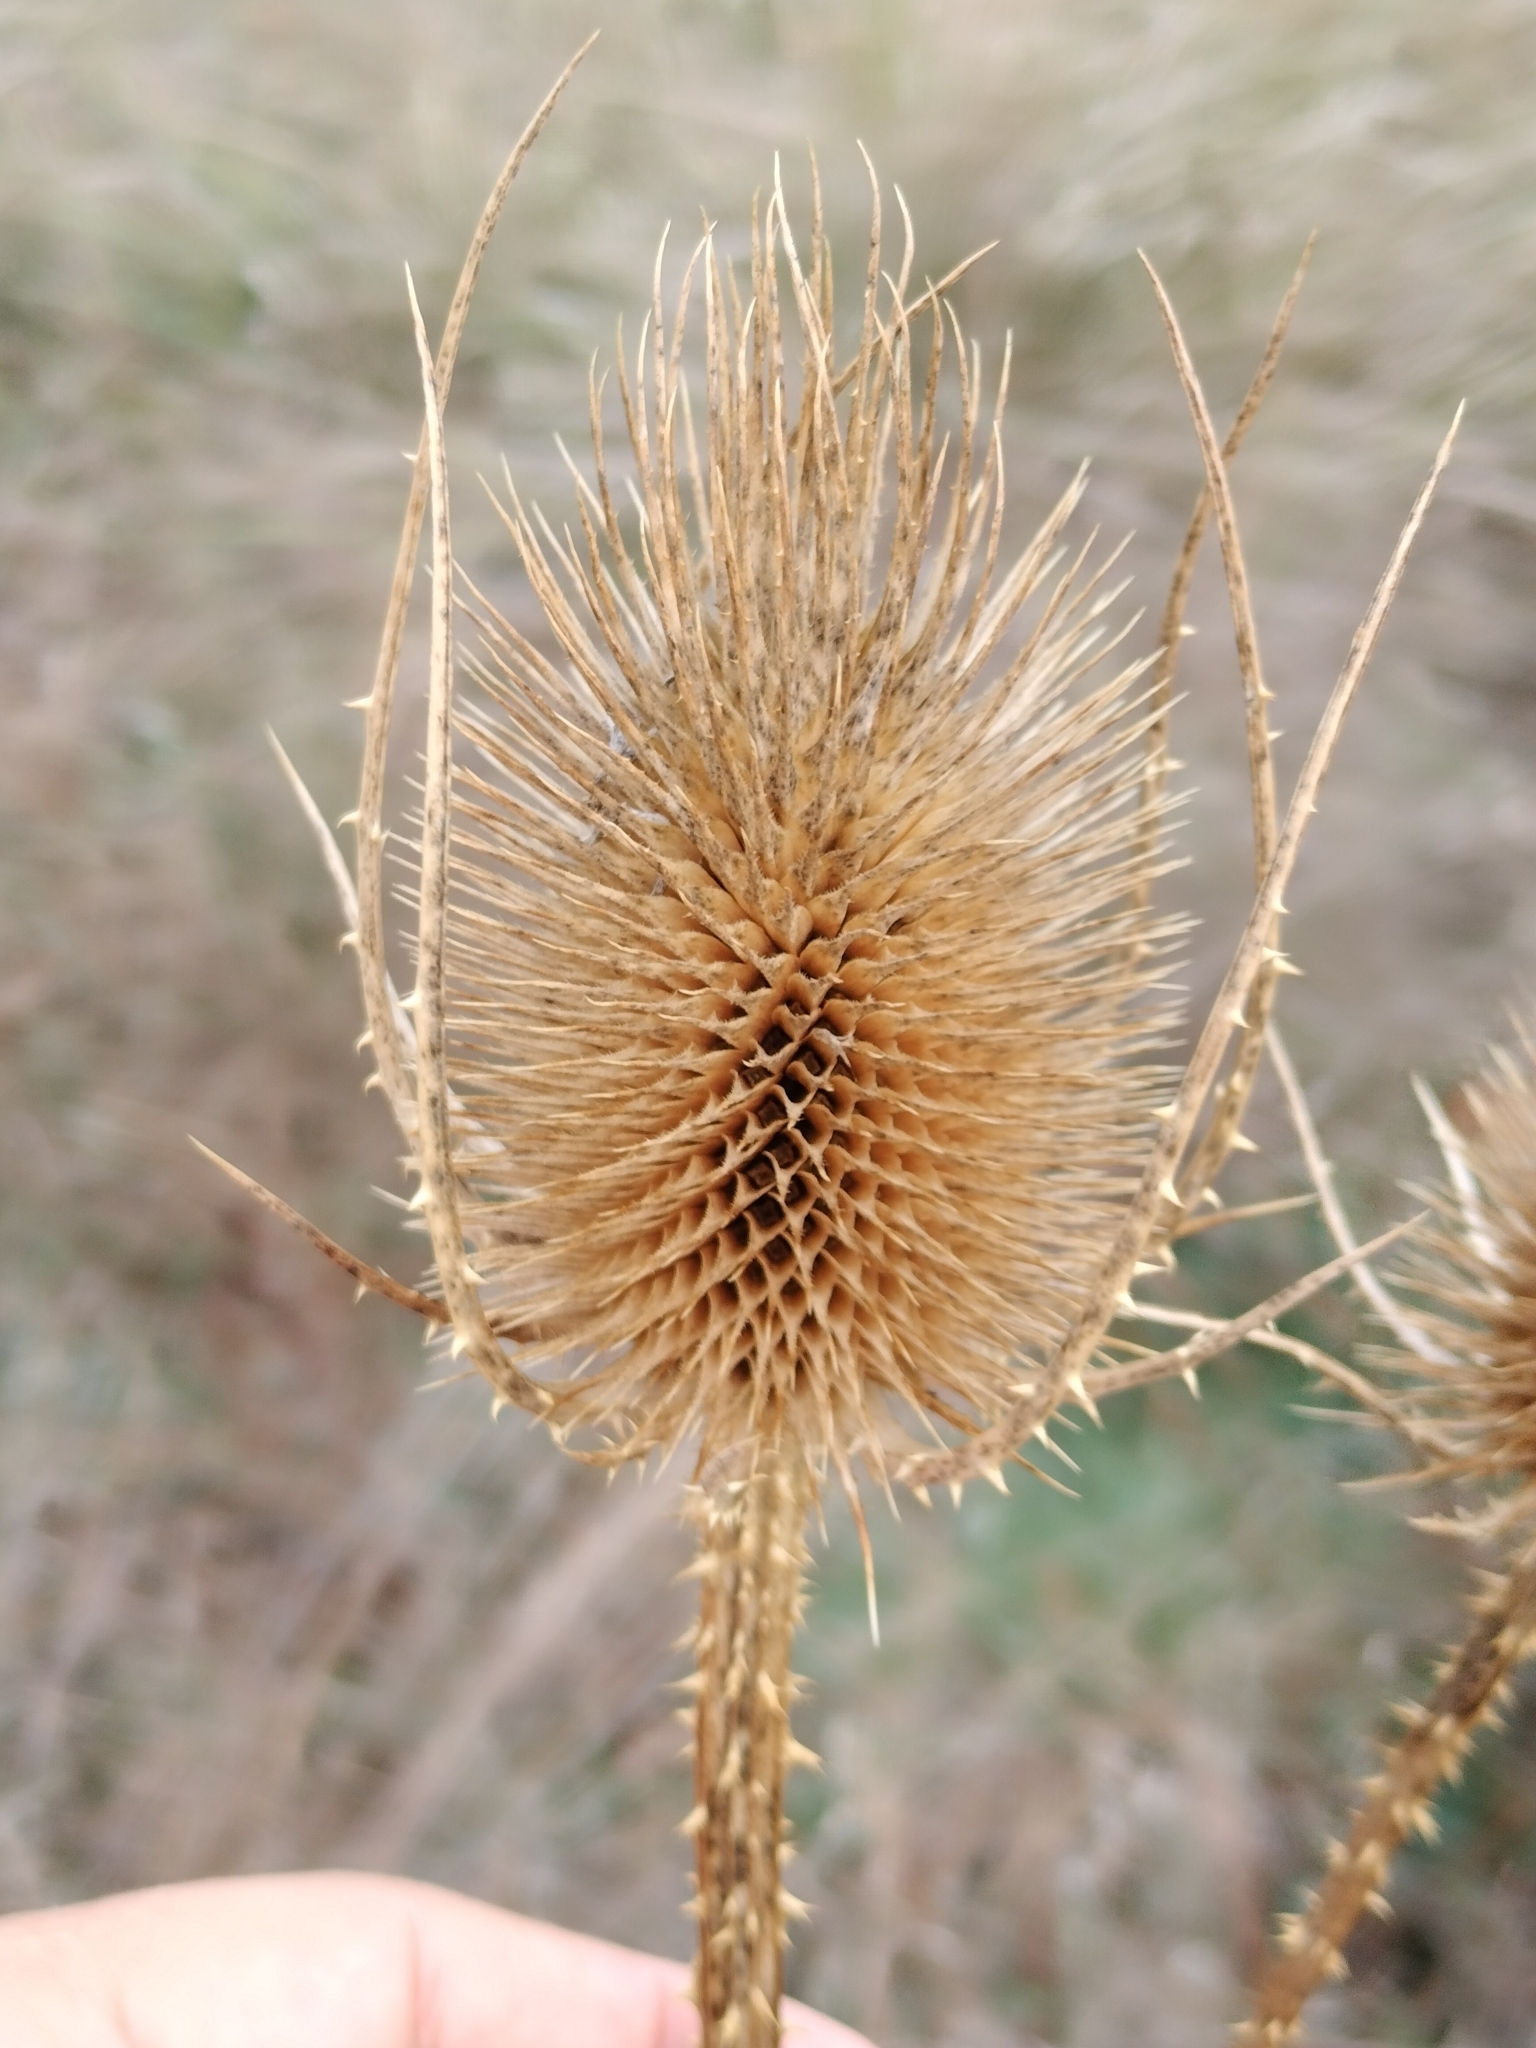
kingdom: Plantae
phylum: Tracheophyta
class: Magnoliopsida
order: Dipsacales
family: Caprifoliaceae
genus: Dipsacus
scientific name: Dipsacus fullonum
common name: Teasel
